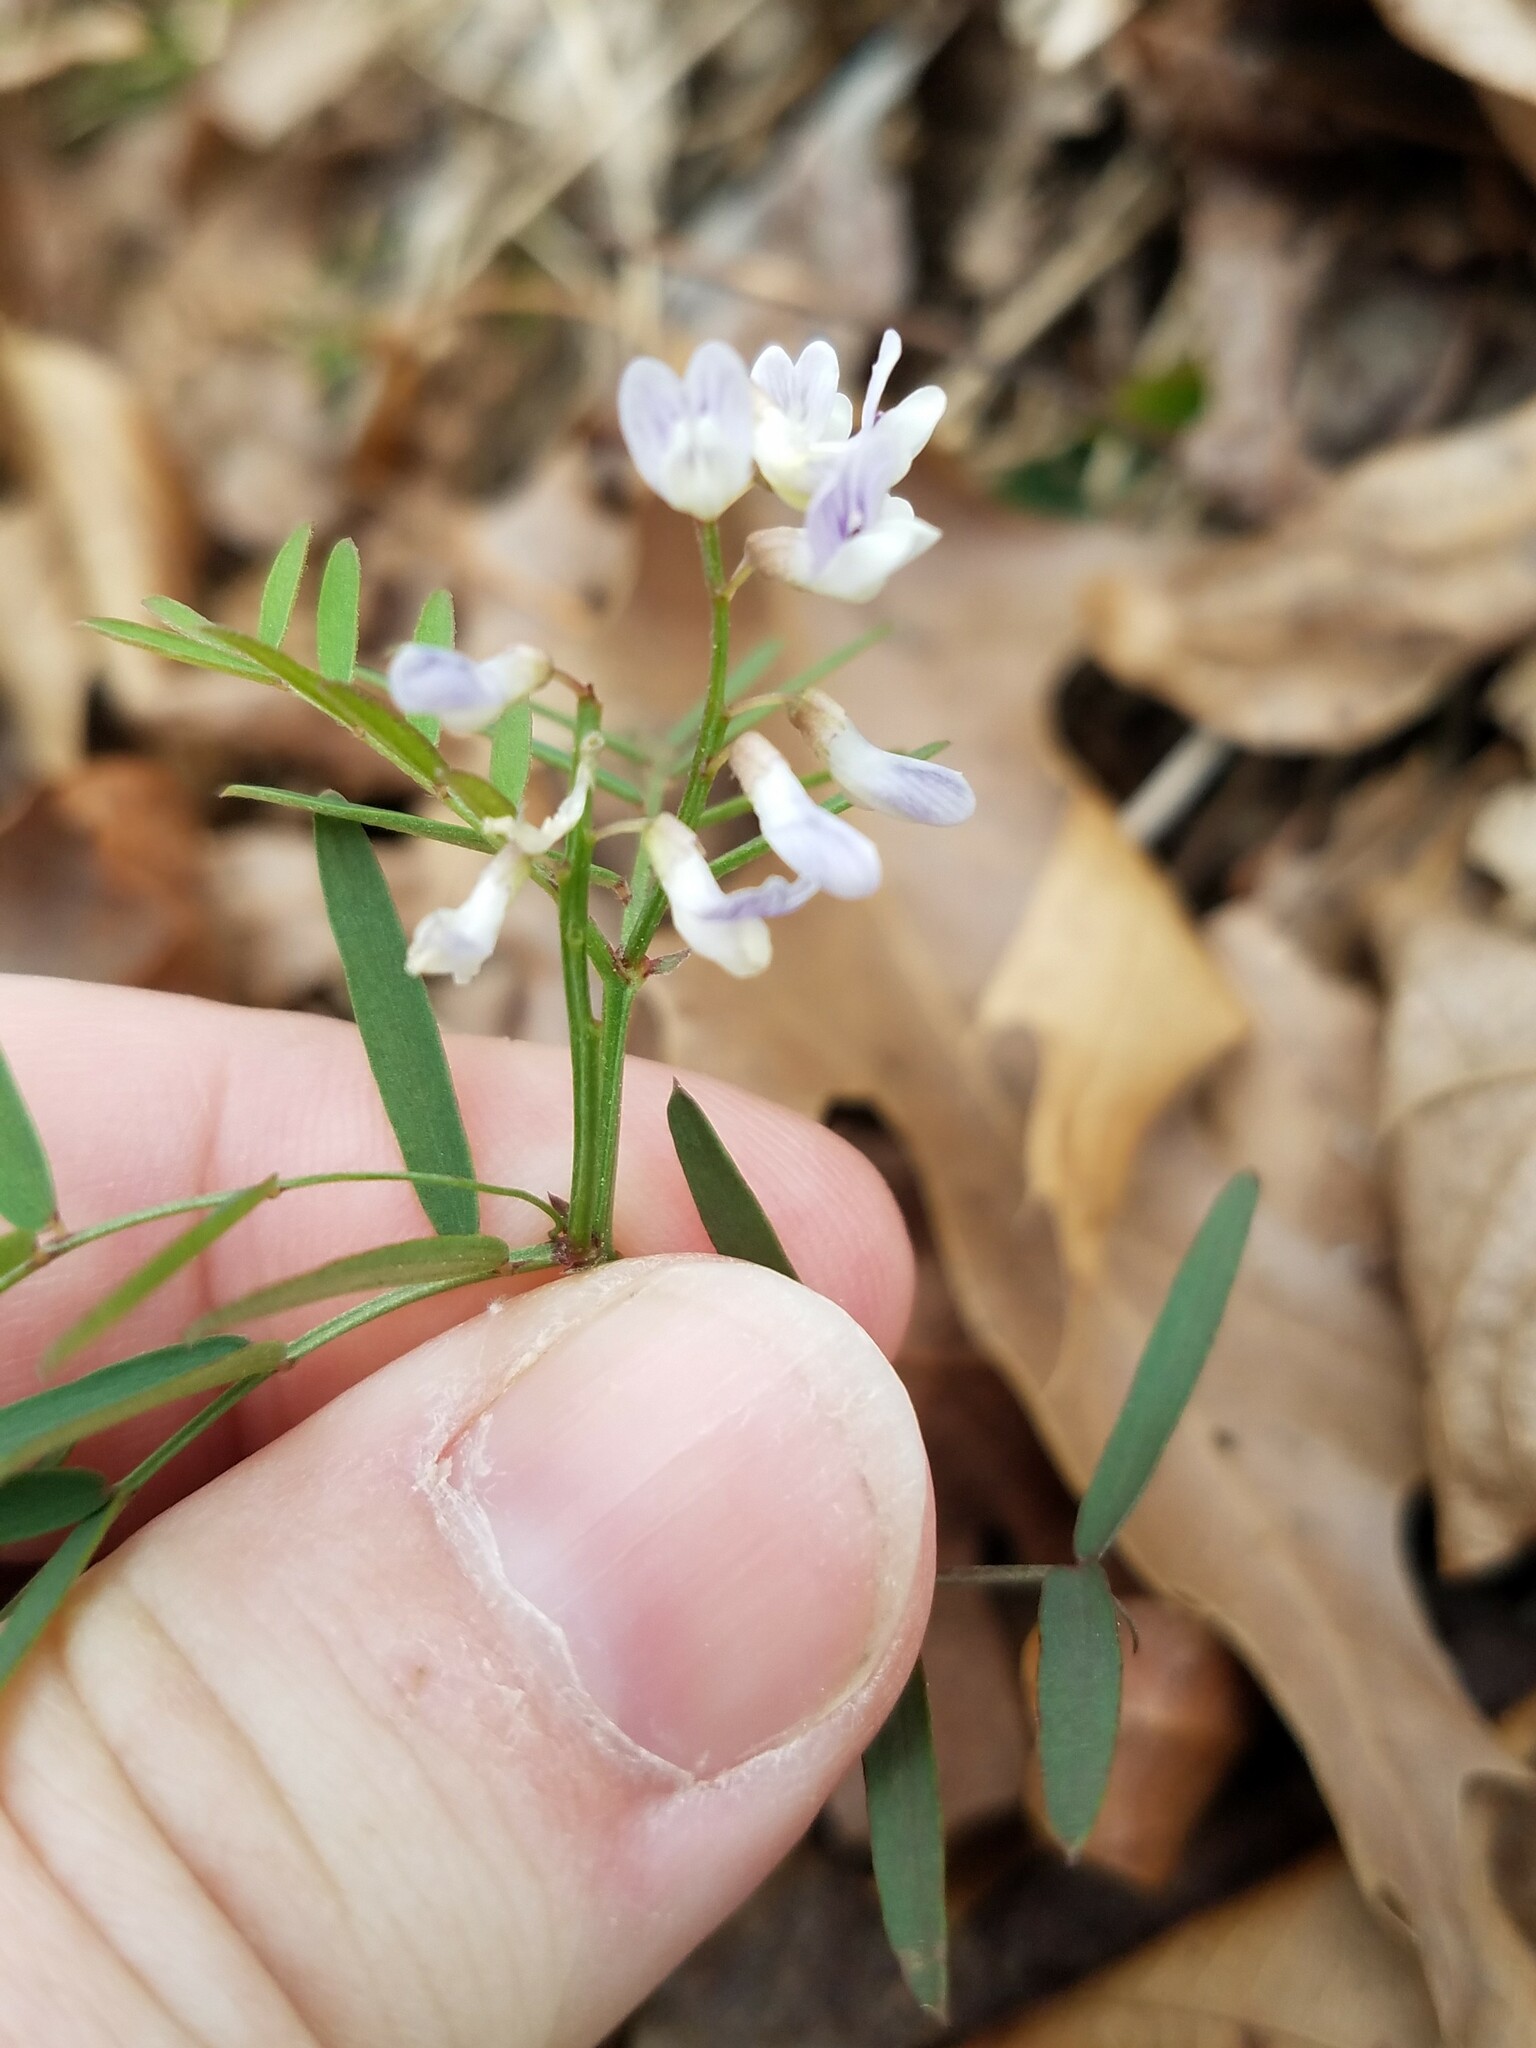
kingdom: Plantae
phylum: Tracheophyta
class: Magnoliopsida
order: Fabales
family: Fabaceae
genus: Vicia
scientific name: Vicia caroliniana
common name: Carolina vetch
